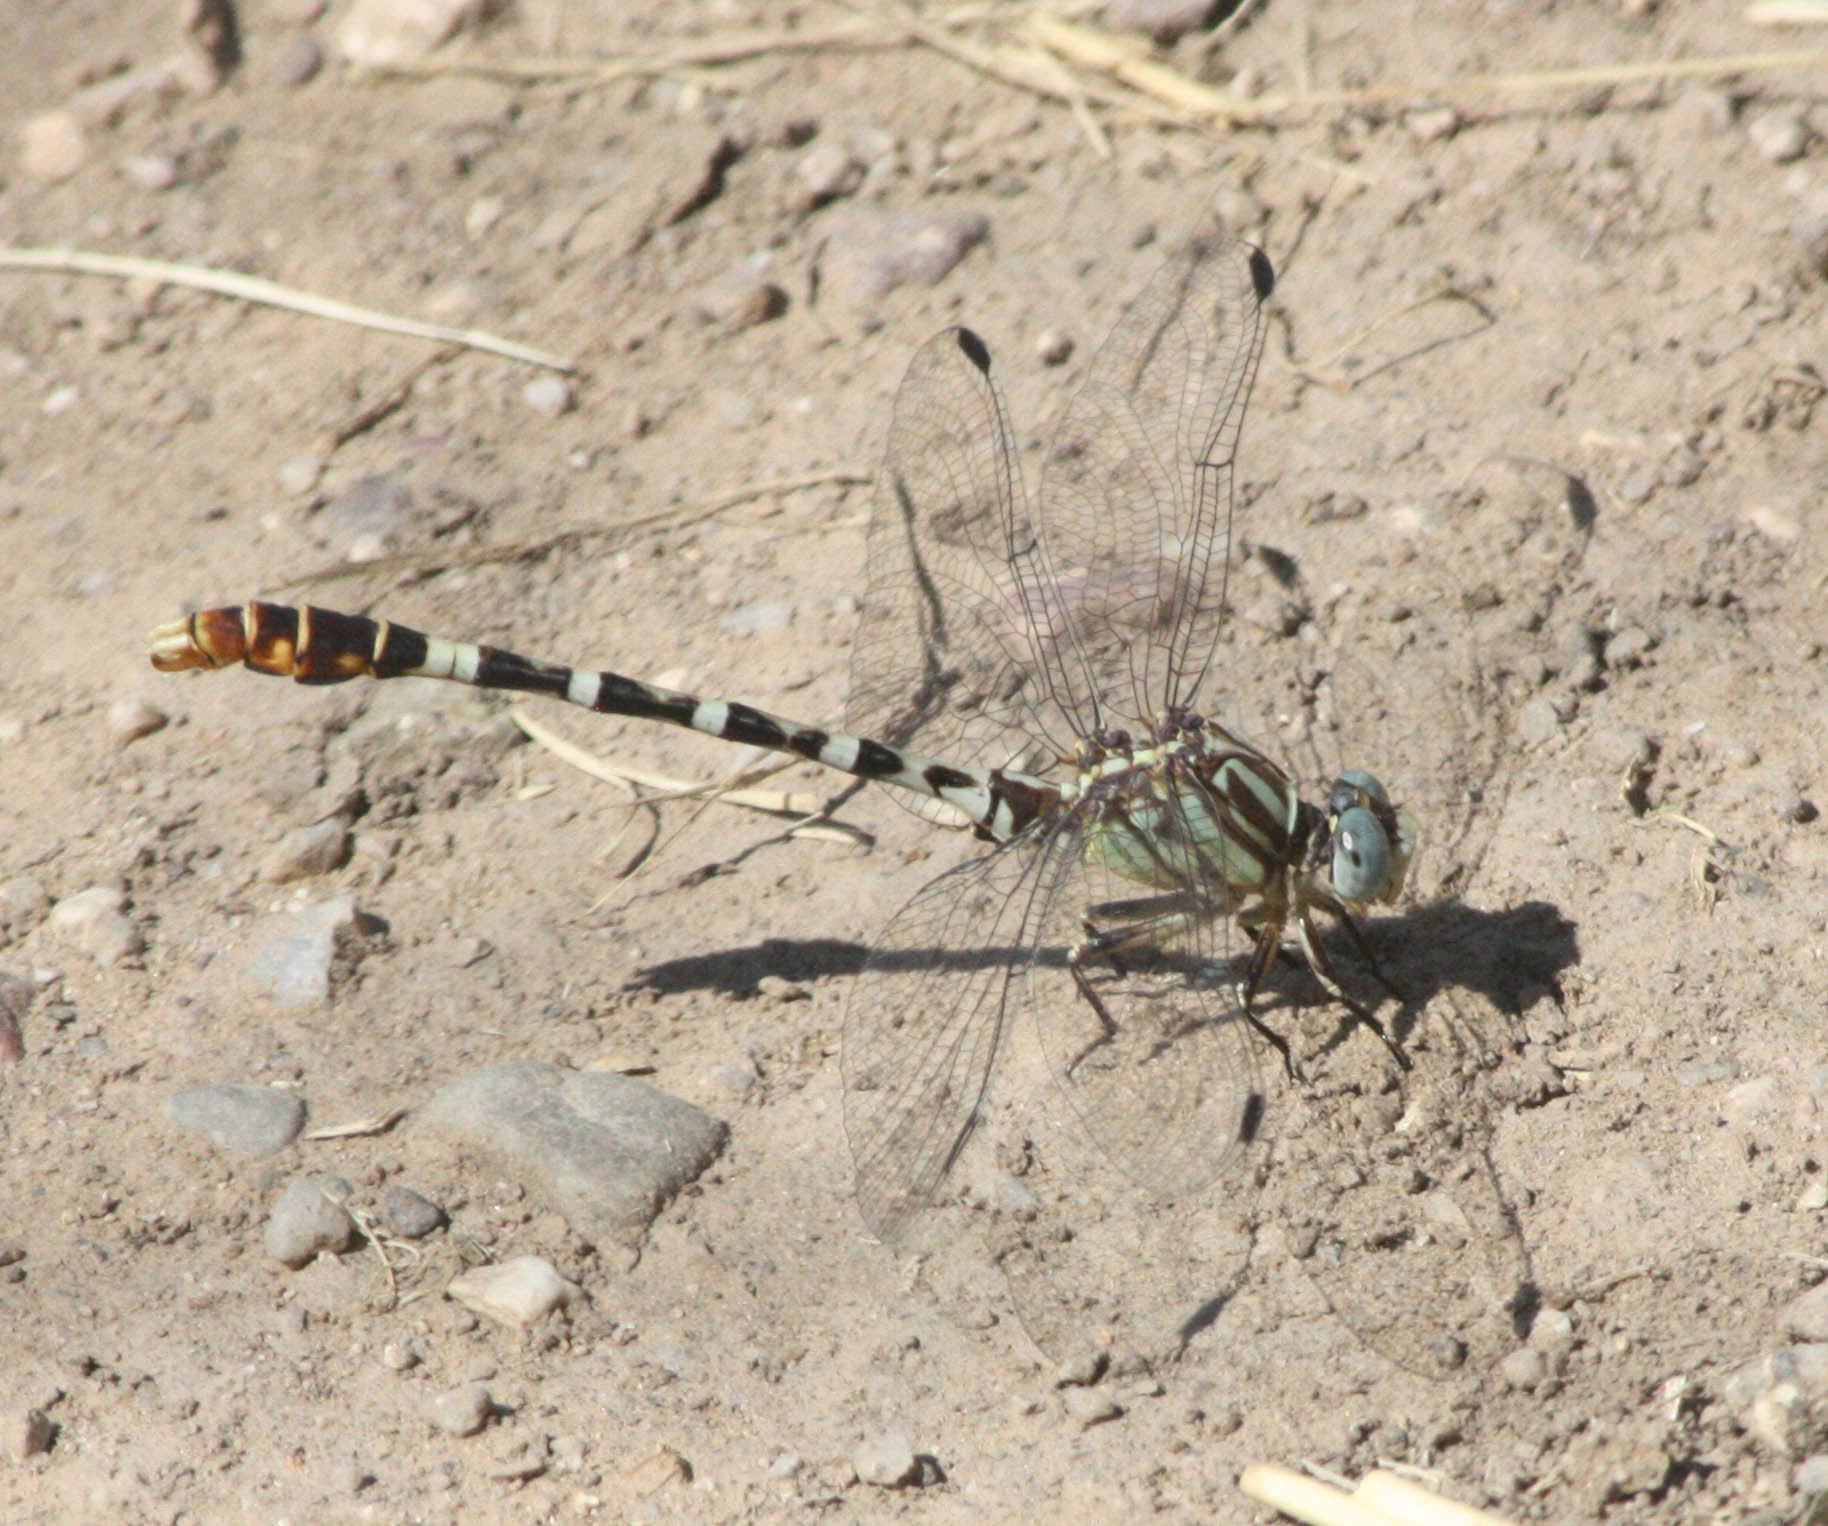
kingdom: Animalia
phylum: Arthropoda
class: Insecta
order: Odonata
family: Gomphidae
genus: Erpetogomphus
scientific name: Erpetogomphus compositus
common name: White-belted ringtail
